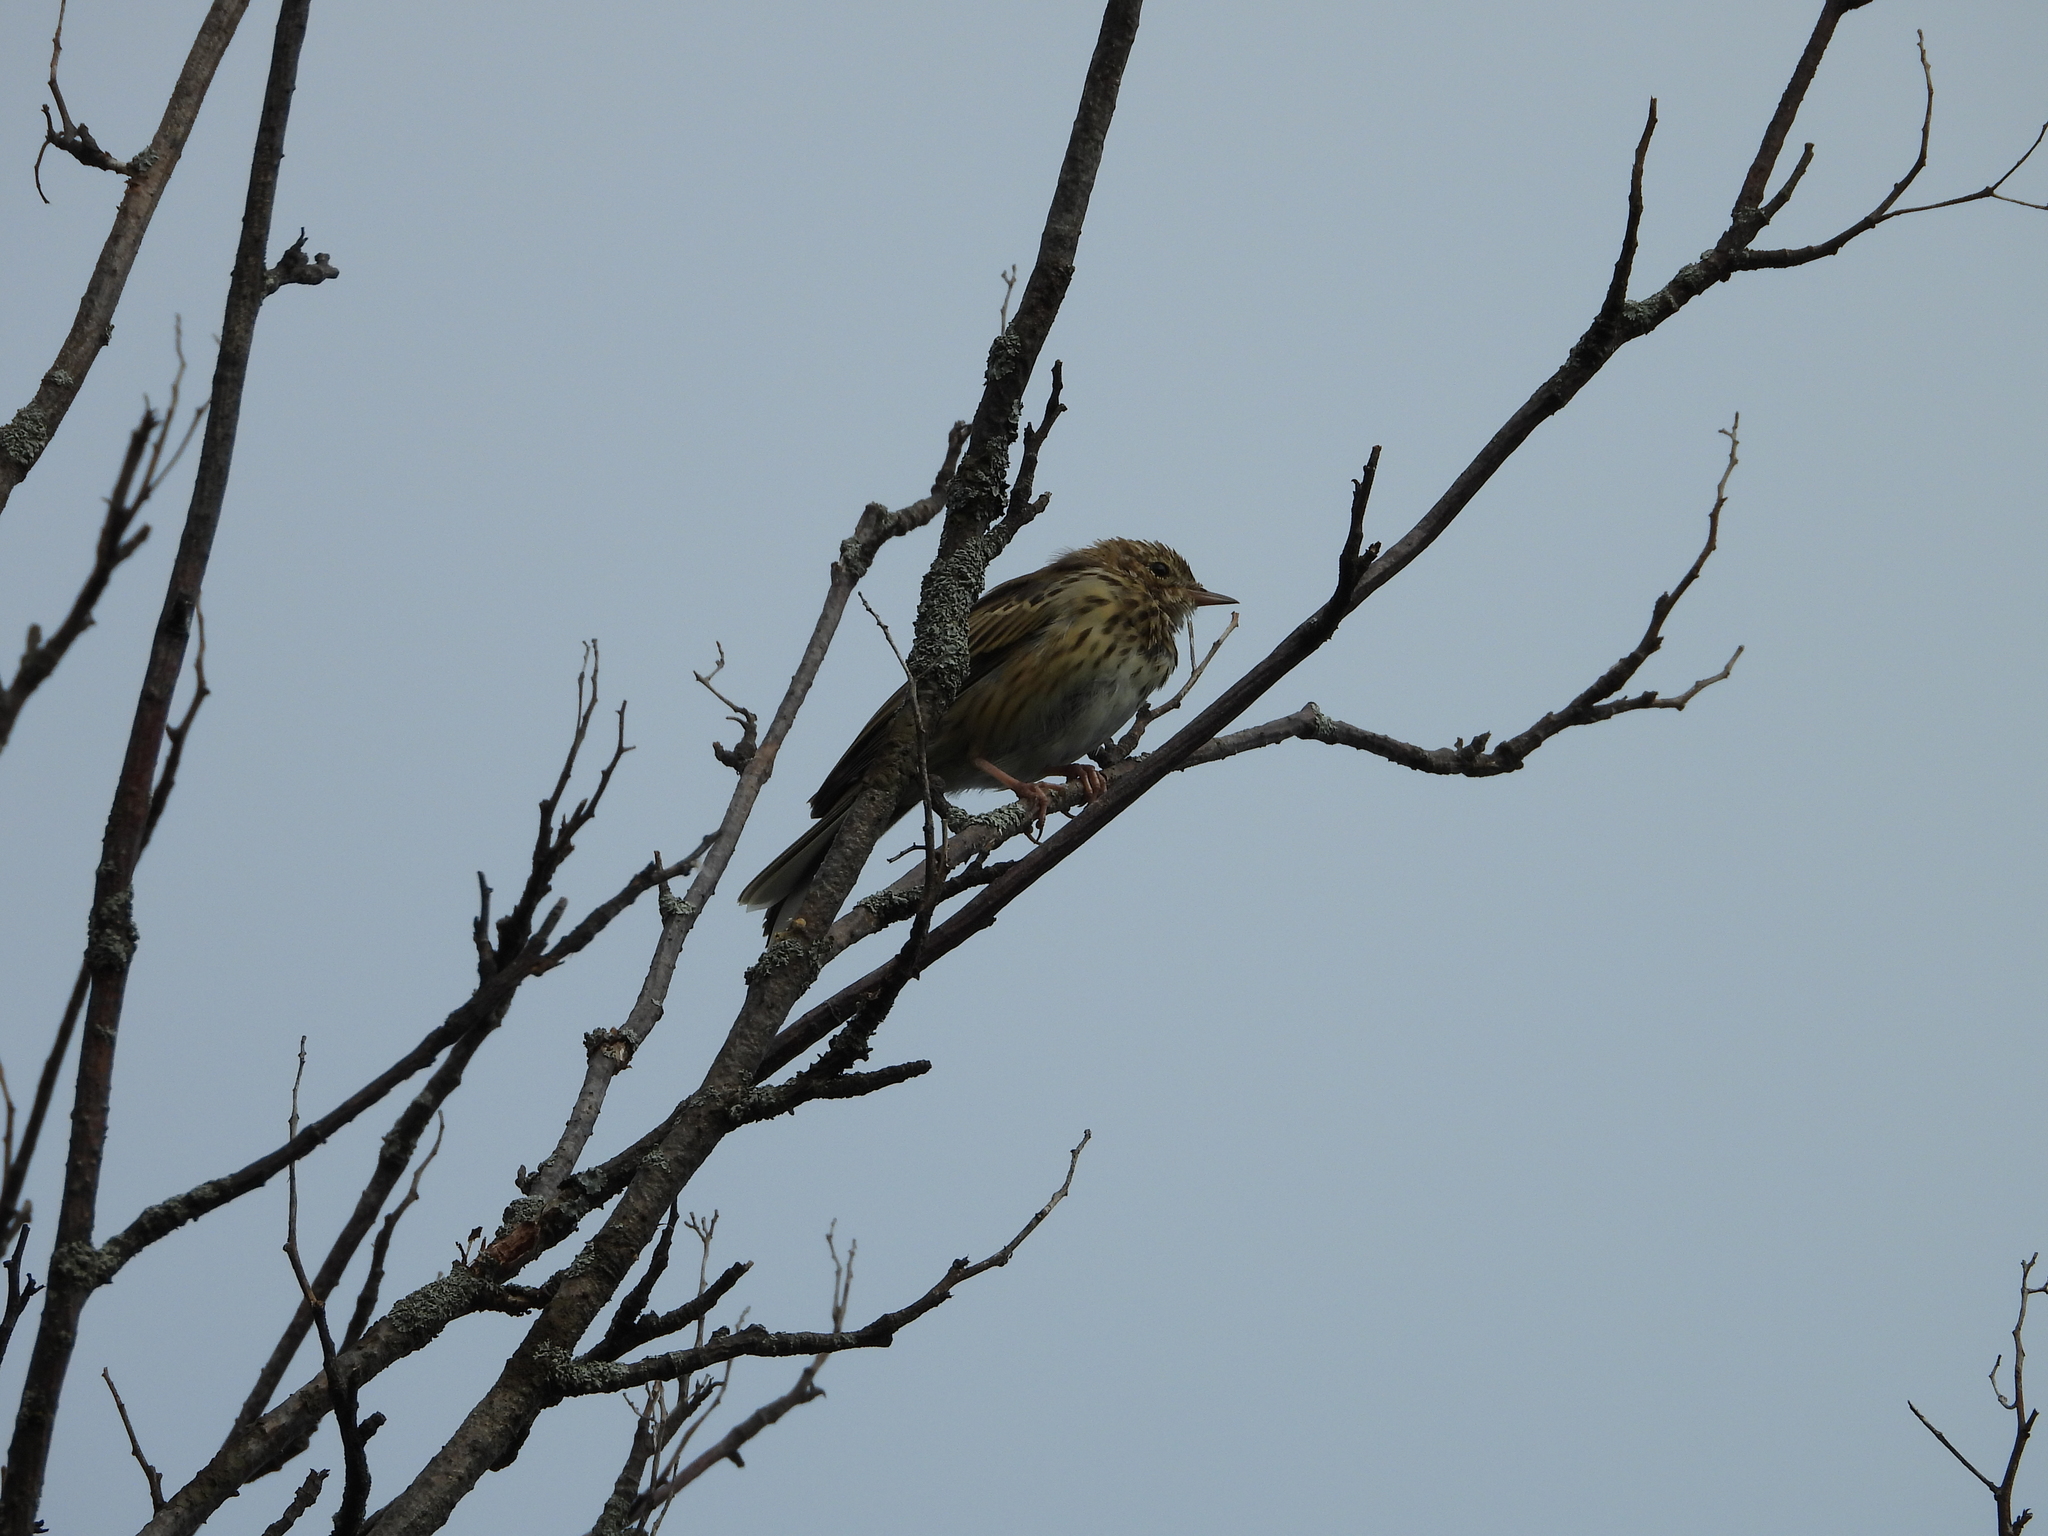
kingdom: Animalia
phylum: Chordata
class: Aves
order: Passeriformes
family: Motacillidae
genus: Anthus
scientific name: Anthus trivialis
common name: Tree pipit
